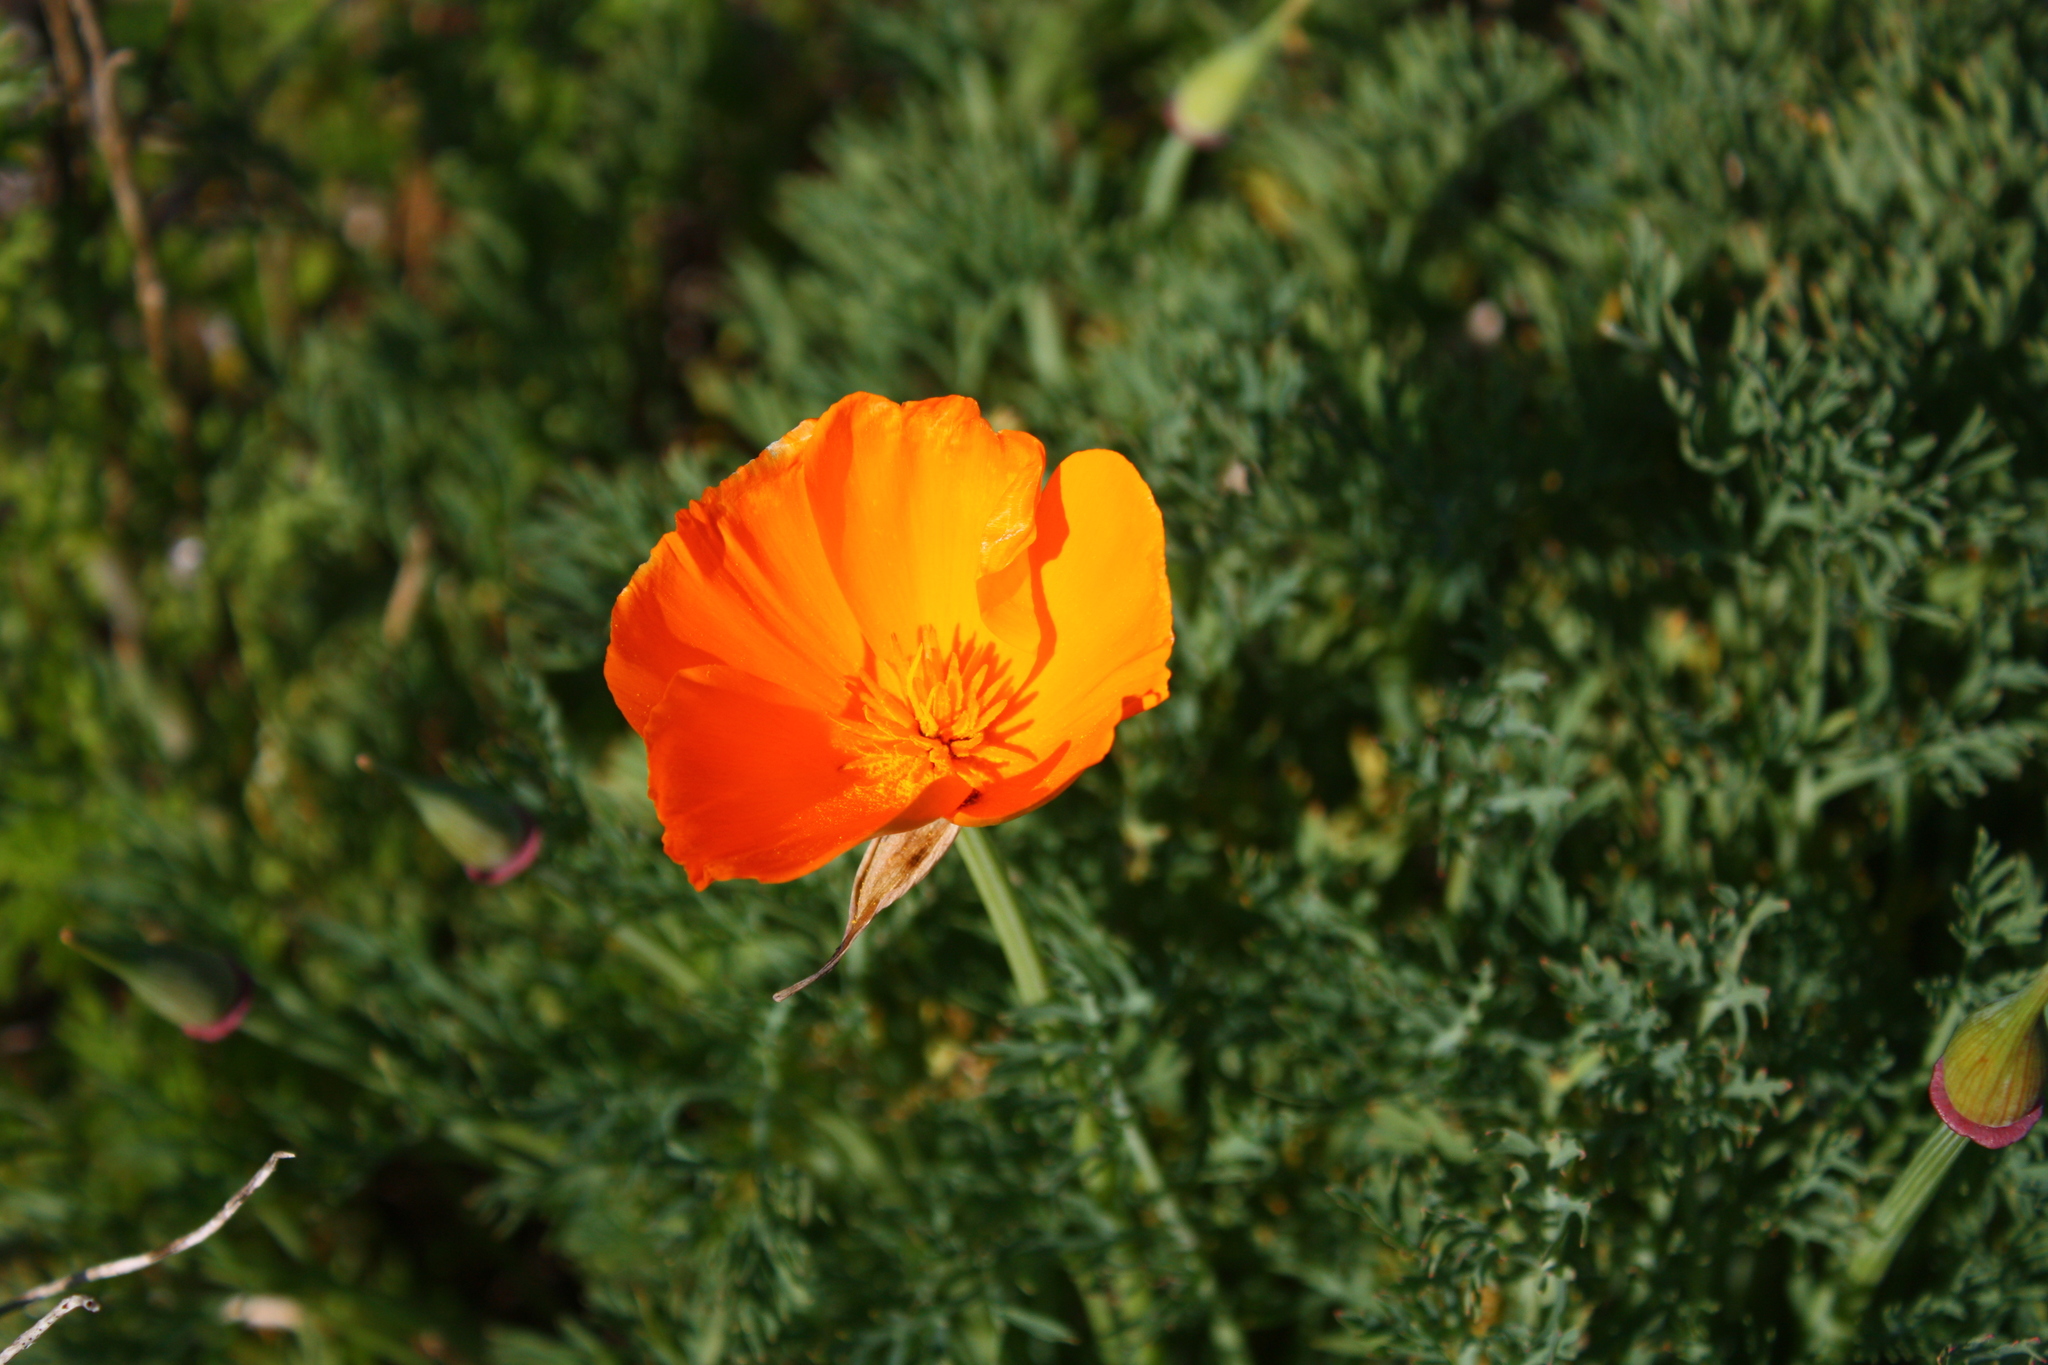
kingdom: Plantae
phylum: Tracheophyta
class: Magnoliopsida
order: Ranunculales
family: Papaveraceae
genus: Eschscholzia
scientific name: Eschscholzia californica
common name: California poppy
